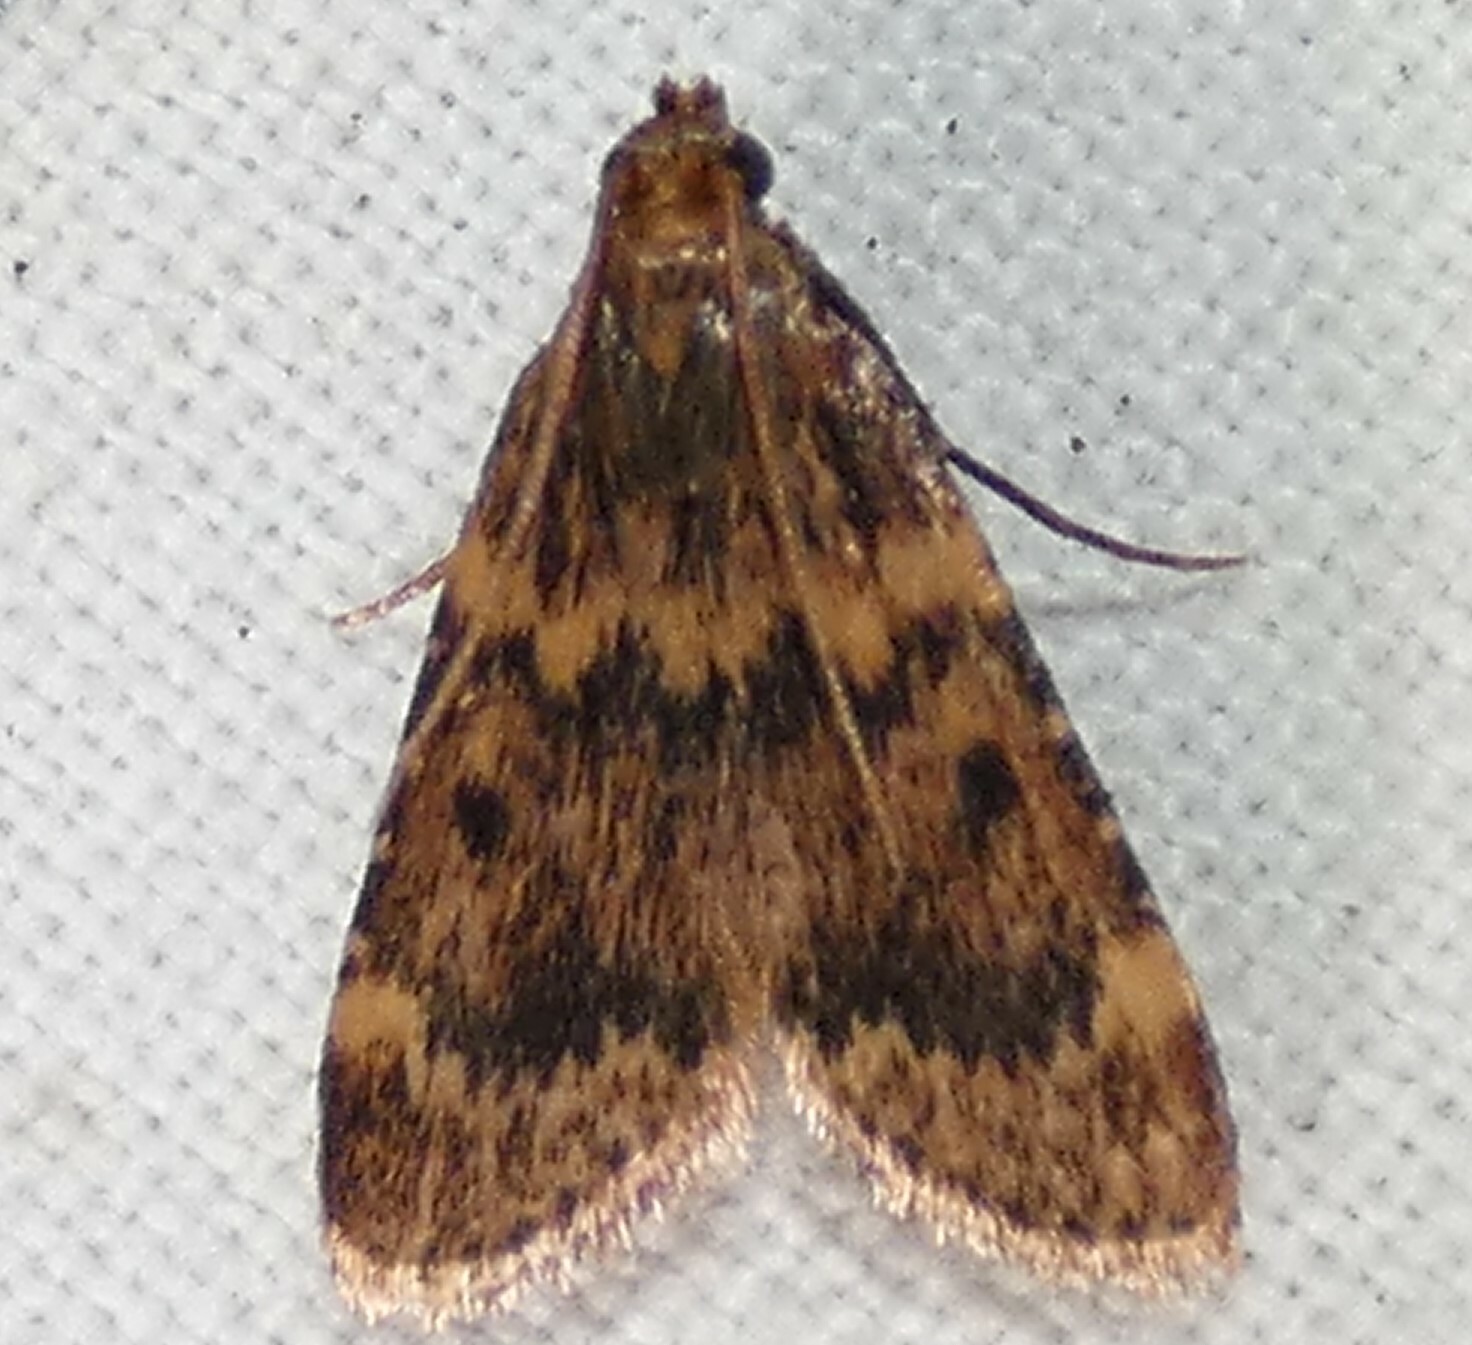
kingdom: Animalia
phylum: Arthropoda
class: Insecta
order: Lepidoptera
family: Pyralidae
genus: Aglossa
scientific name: Aglossa disciferalis
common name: Pink-masked pyralid moth
